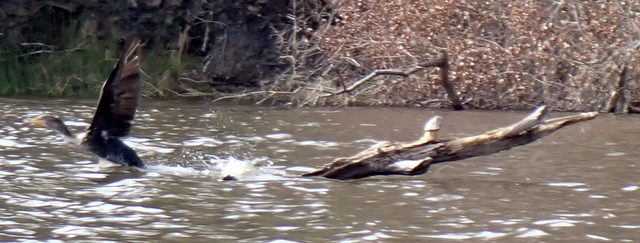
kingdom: Animalia
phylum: Chordata
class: Aves
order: Suliformes
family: Phalacrocoracidae
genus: Phalacrocorax
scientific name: Phalacrocorax auritus
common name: Double-crested cormorant
